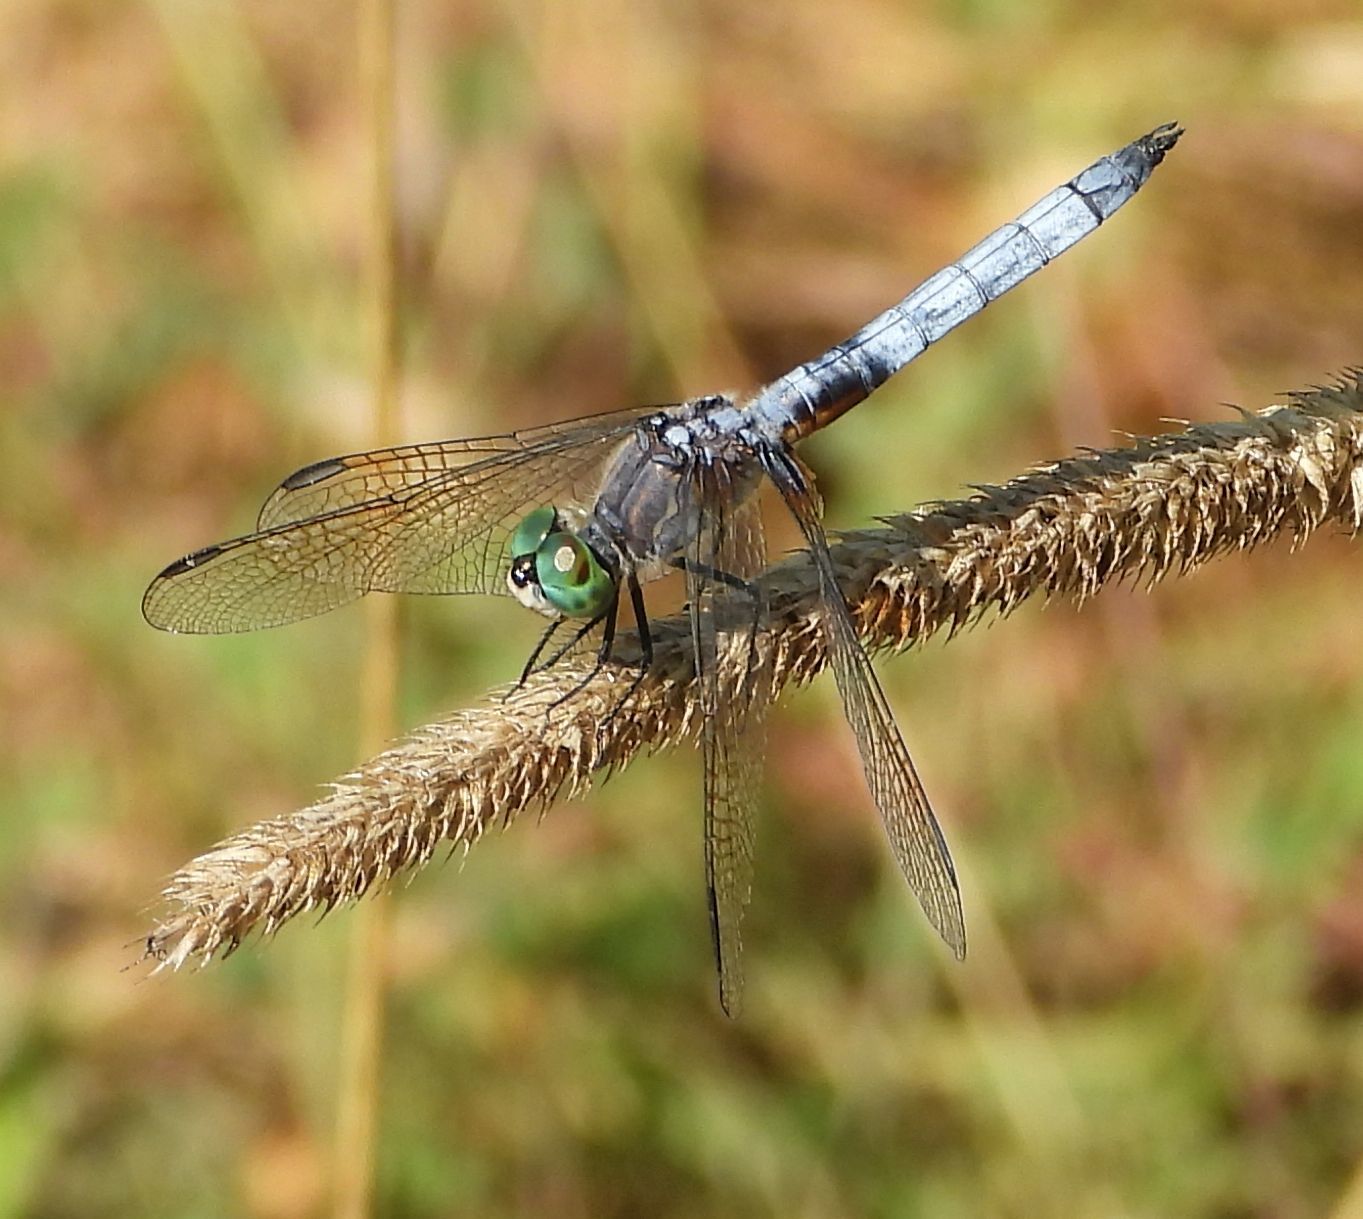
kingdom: Animalia
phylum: Arthropoda
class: Insecta
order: Odonata
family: Libellulidae
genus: Pachydiplax
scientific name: Pachydiplax longipennis
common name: Blue dasher
